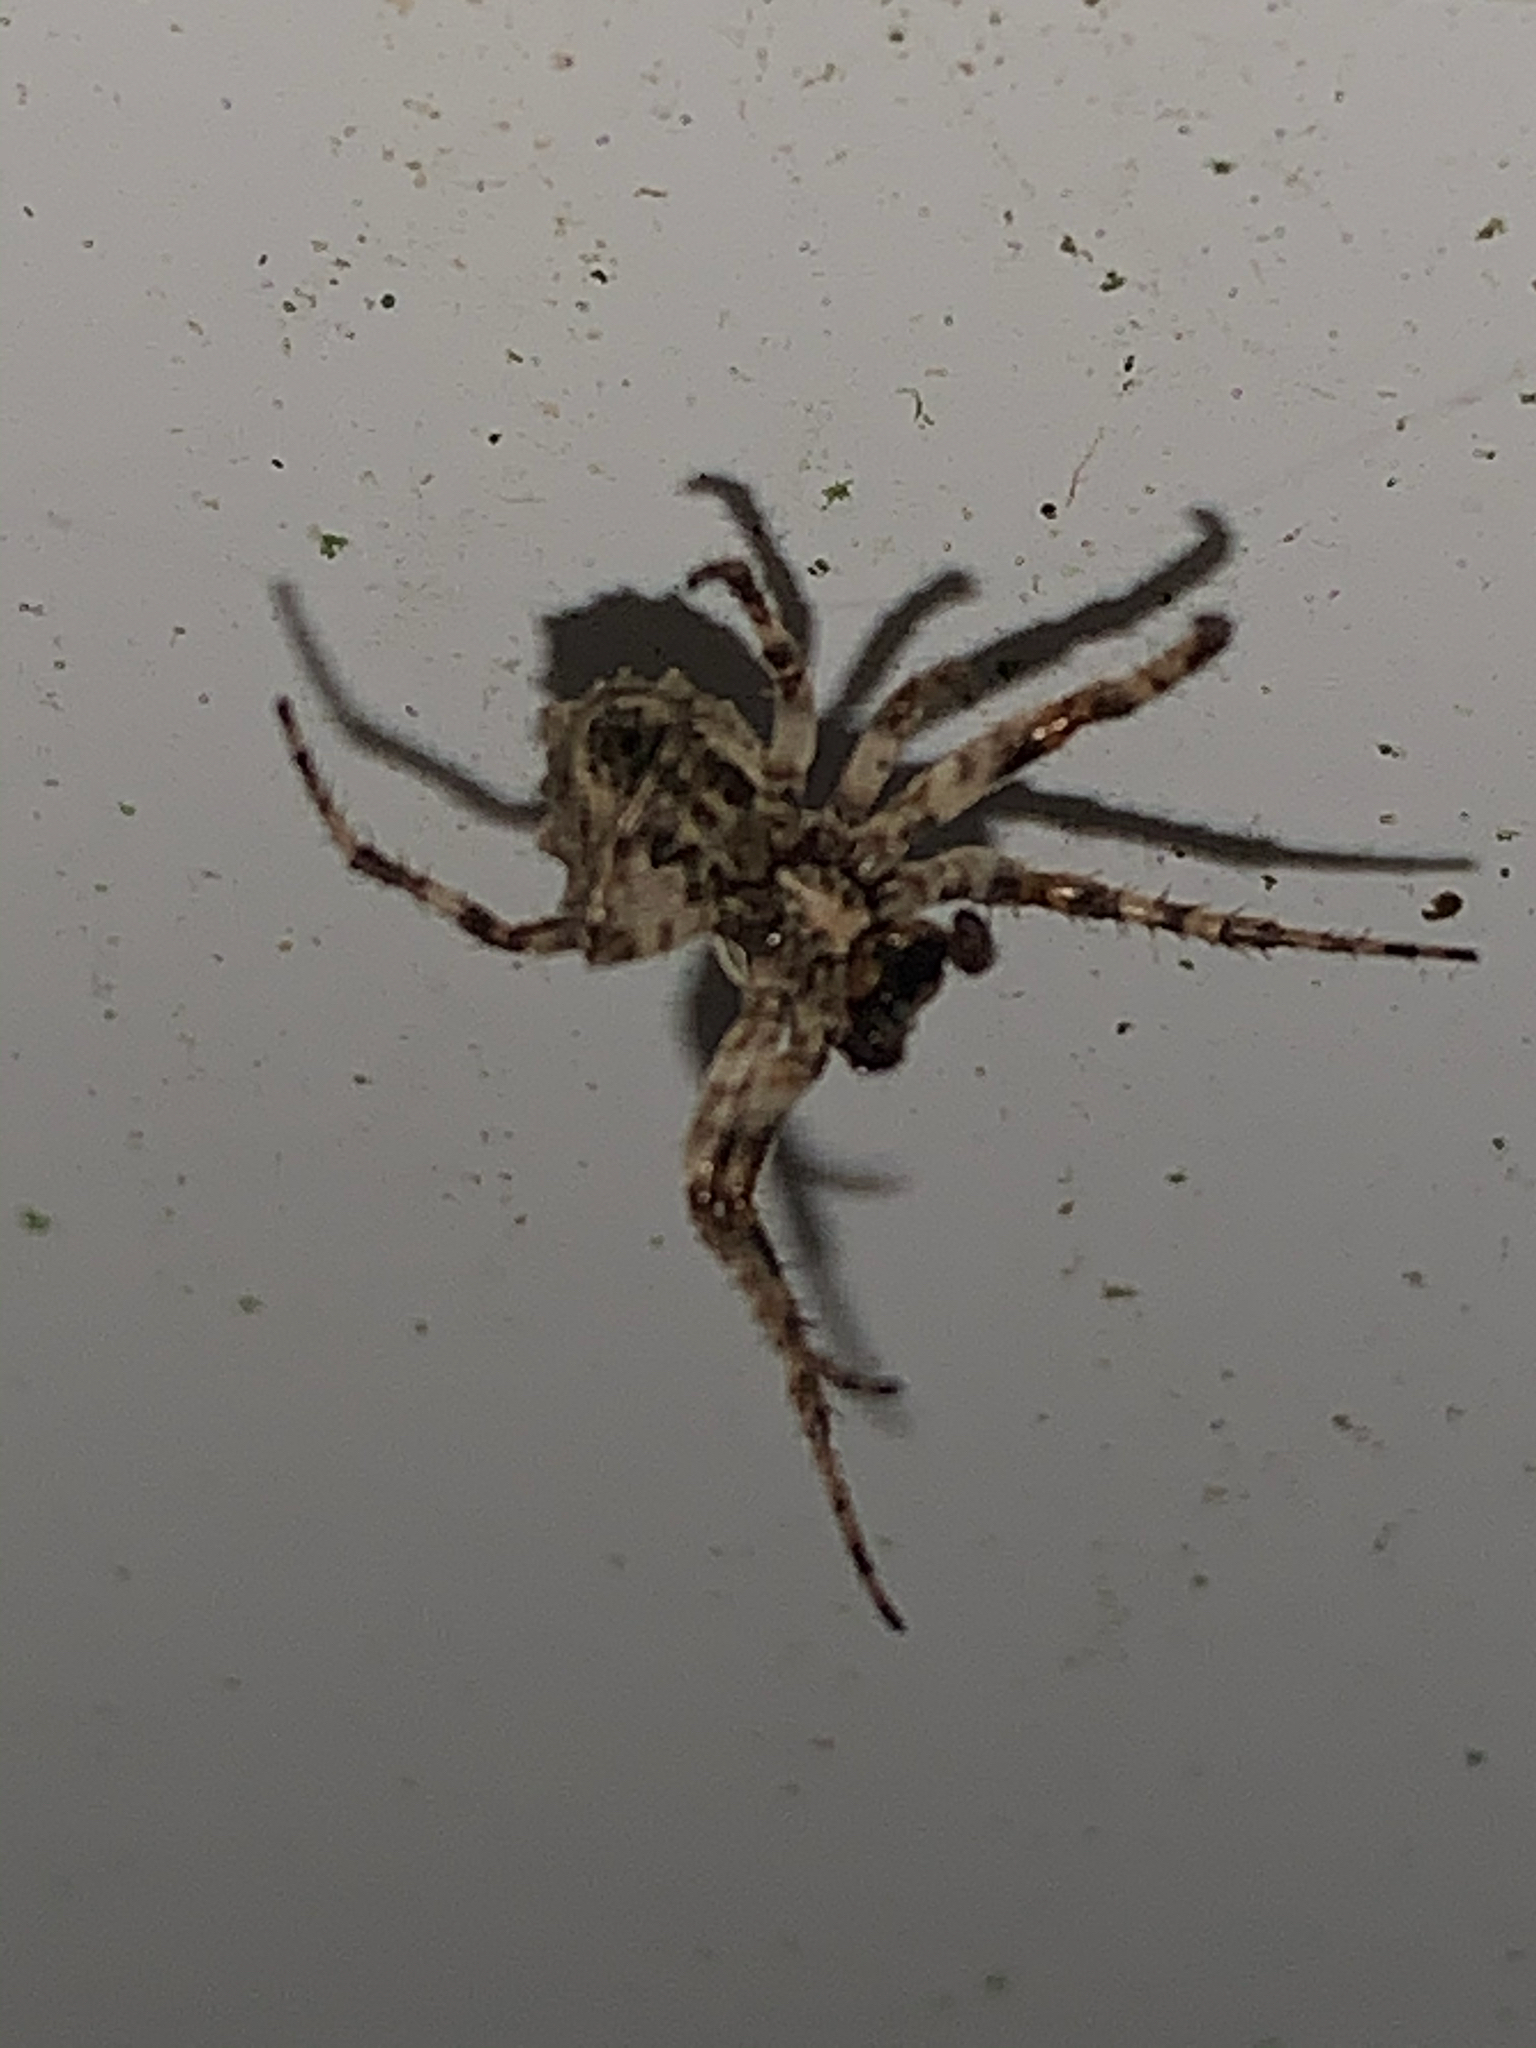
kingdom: Animalia
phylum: Arthropoda
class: Arachnida
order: Araneae
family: Araneidae
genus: Acanthepeira
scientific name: Acanthepeira stellata
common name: Starbellied orbweaver
